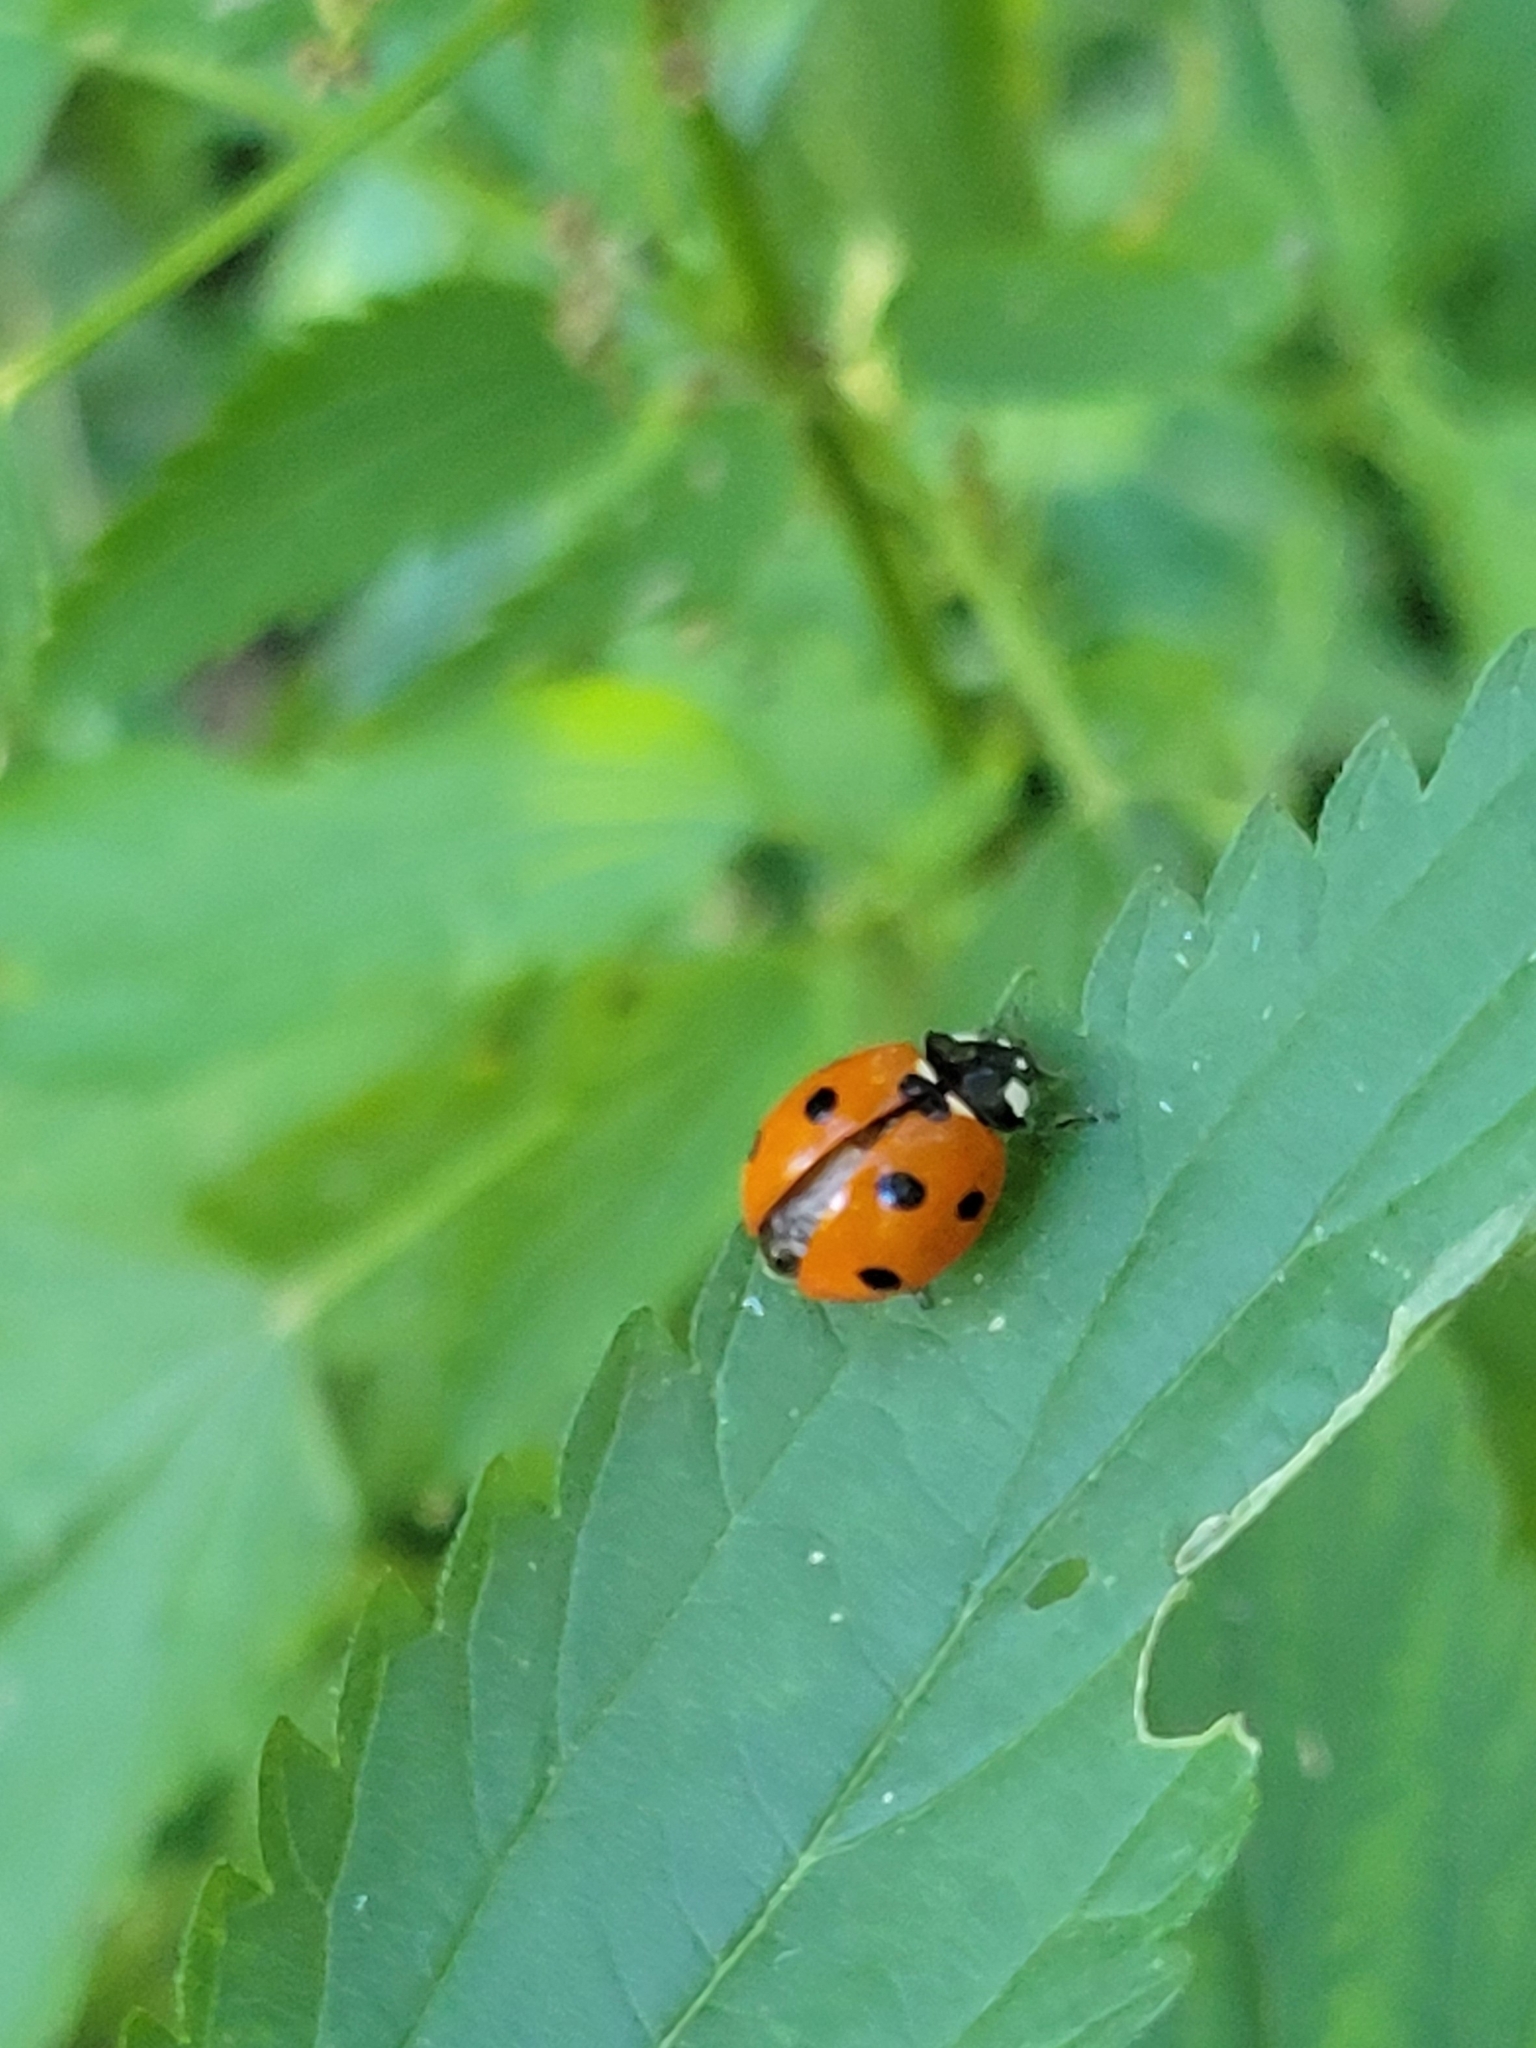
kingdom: Animalia
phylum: Arthropoda
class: Insecta
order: Coleoptera
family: Coccinellidae
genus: Coccinella
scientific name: Coccinella septempunctata
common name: Sevenspotted lady beetle
